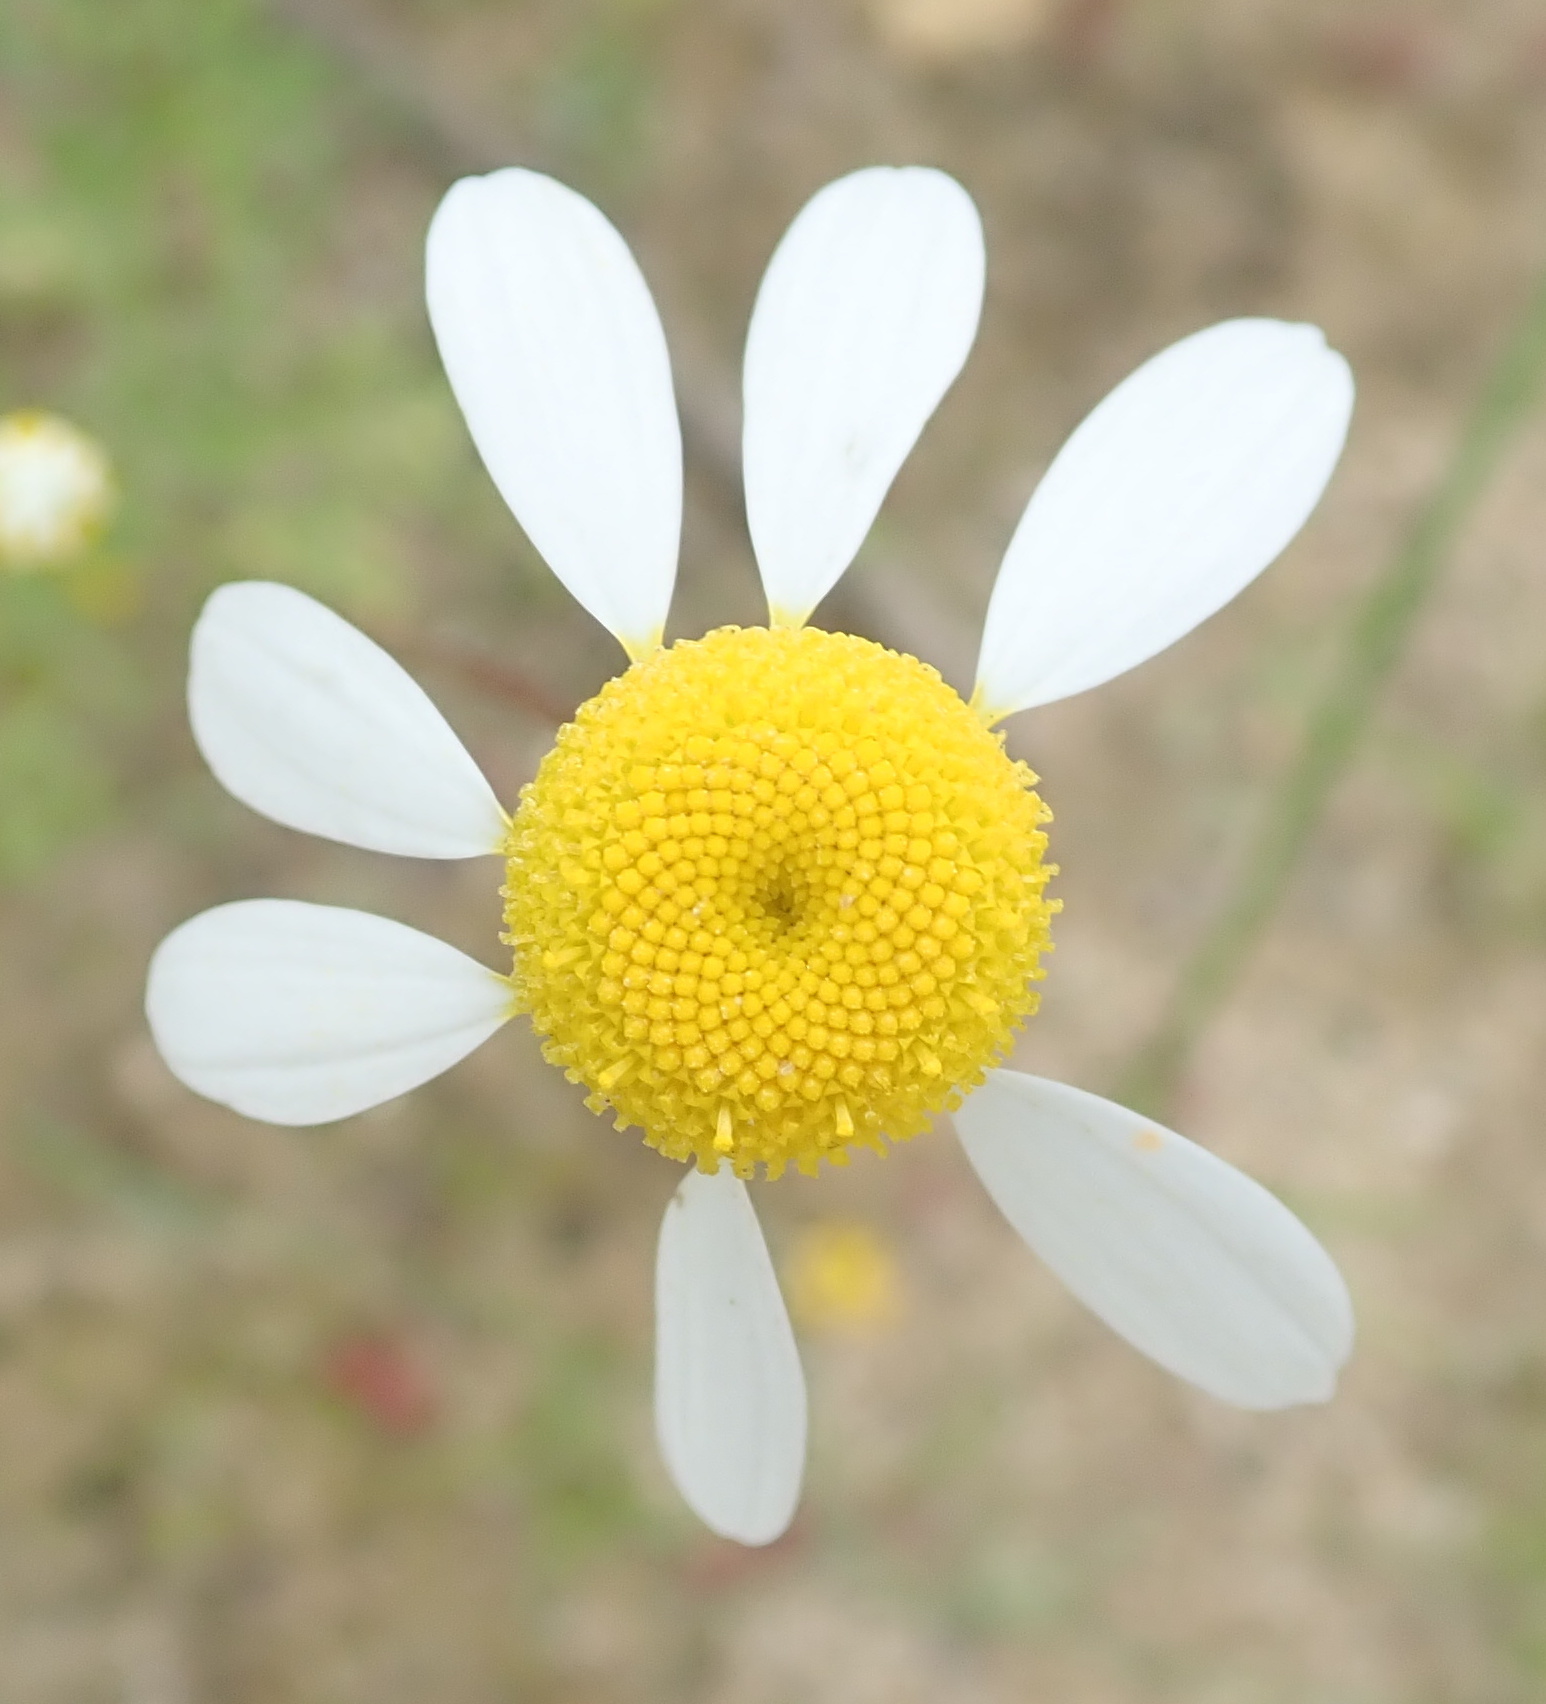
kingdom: Plantae
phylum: Tracheophyta
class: Magnoliopsida
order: Asterales
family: Asteraceae
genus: Foveolina
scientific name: Foveolina tenella
